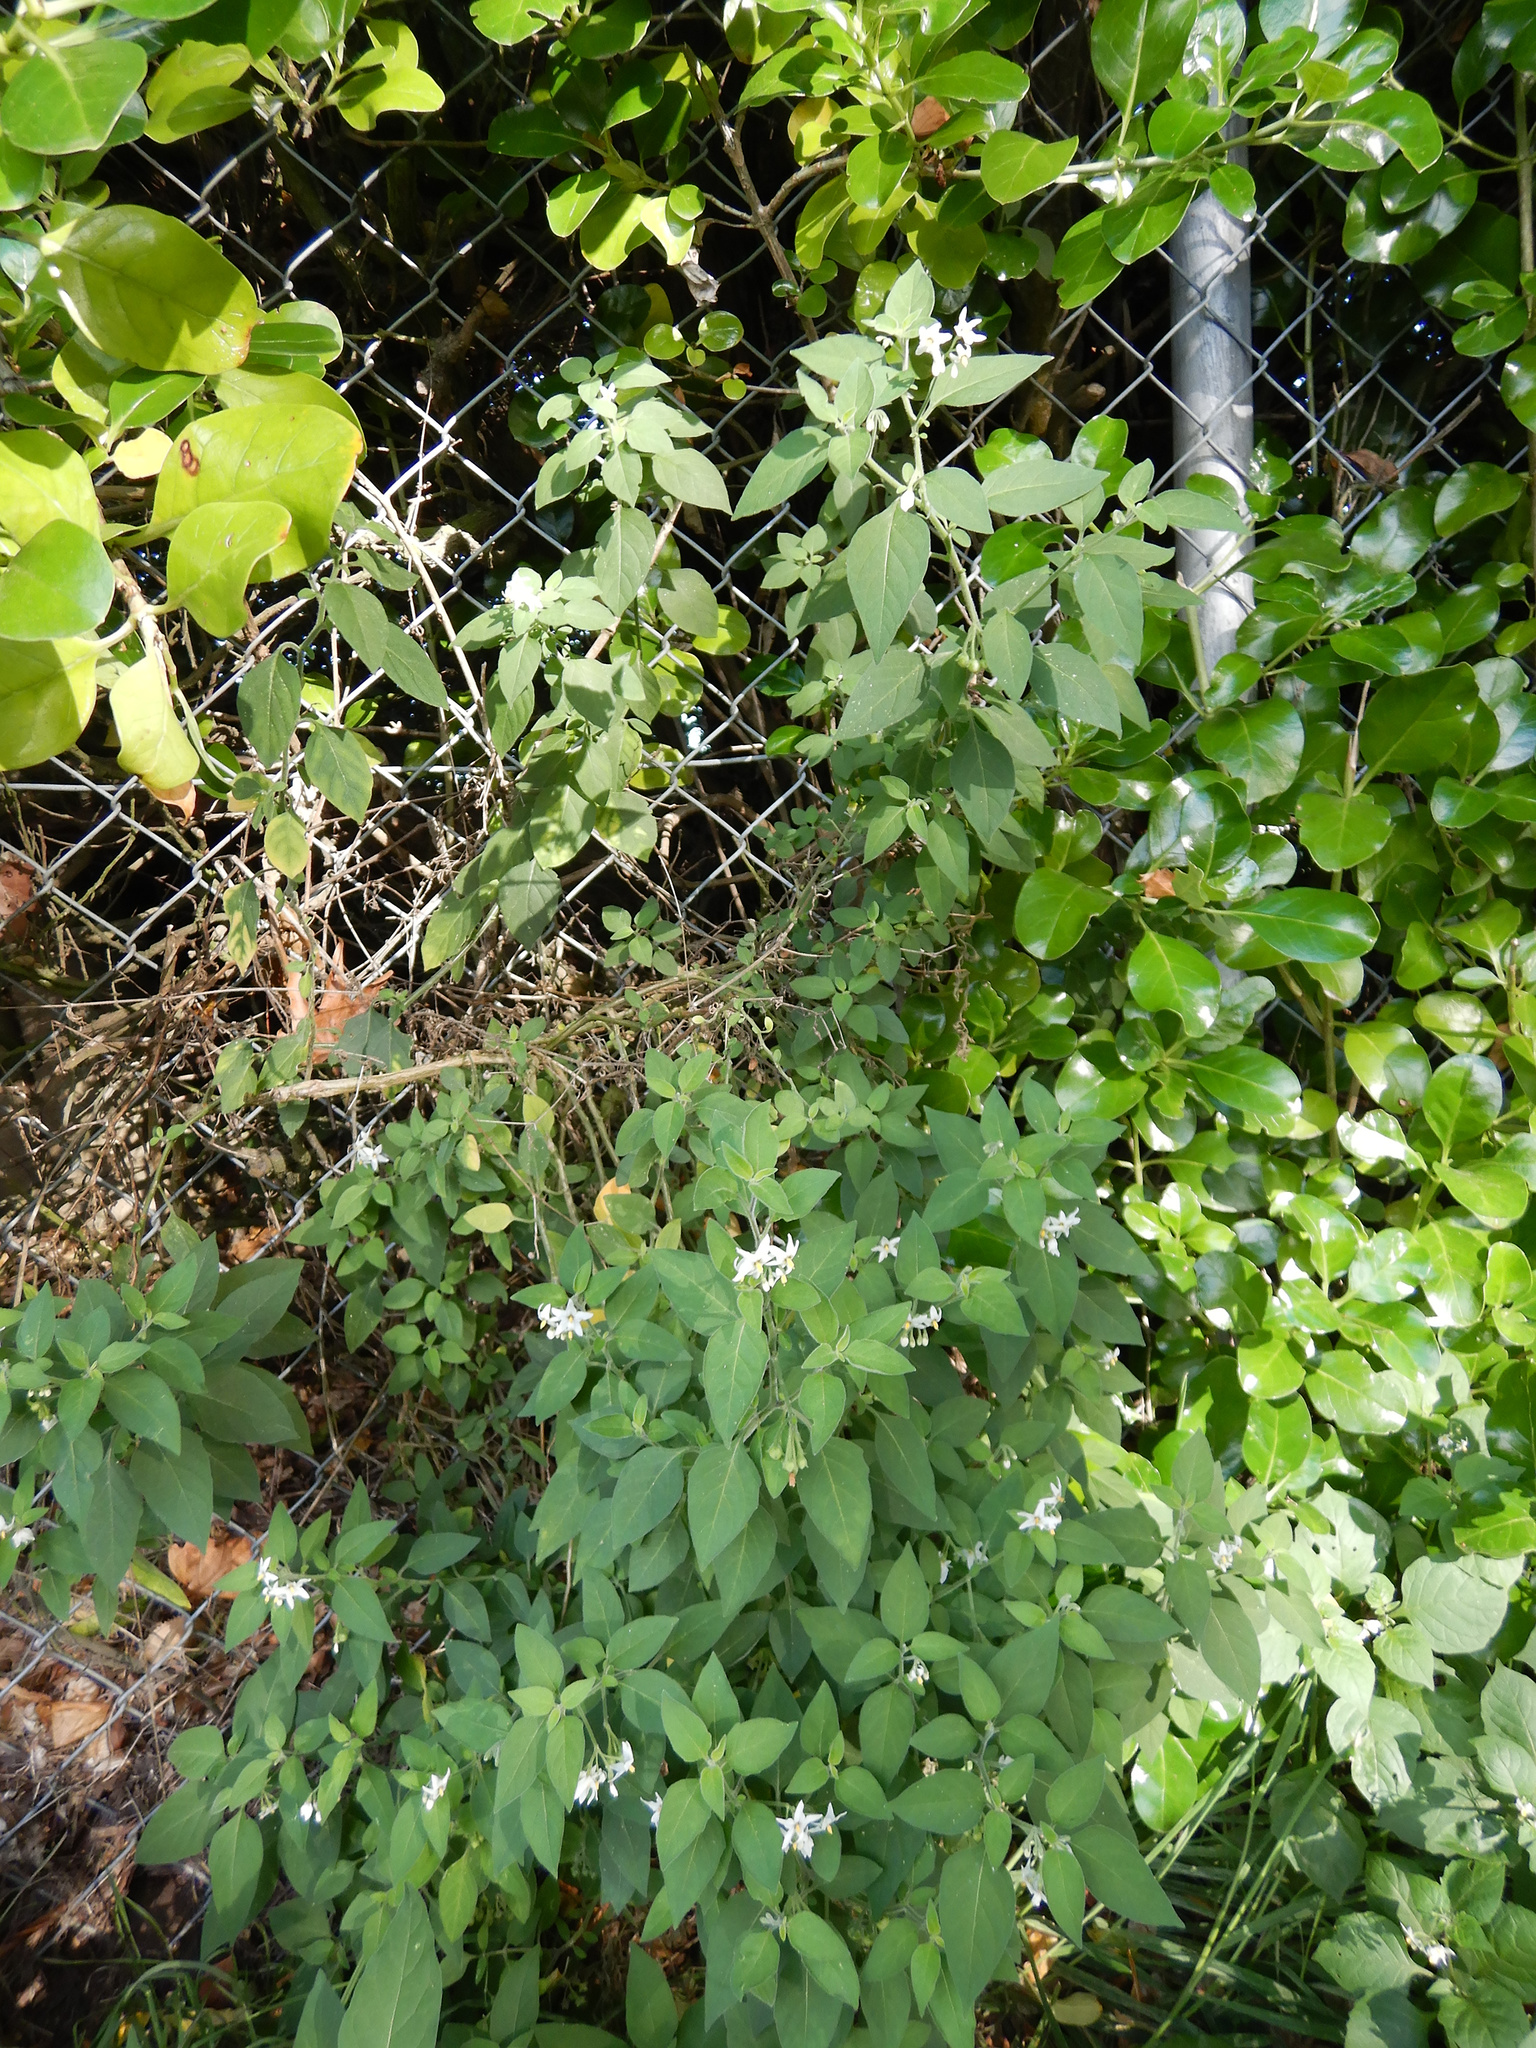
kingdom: Plantae
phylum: Tracheophyta
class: Magnoliopsida
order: Solanales
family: Solanaceae
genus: Solanum
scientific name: Solanum chenopodioides
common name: Tall nightshade
